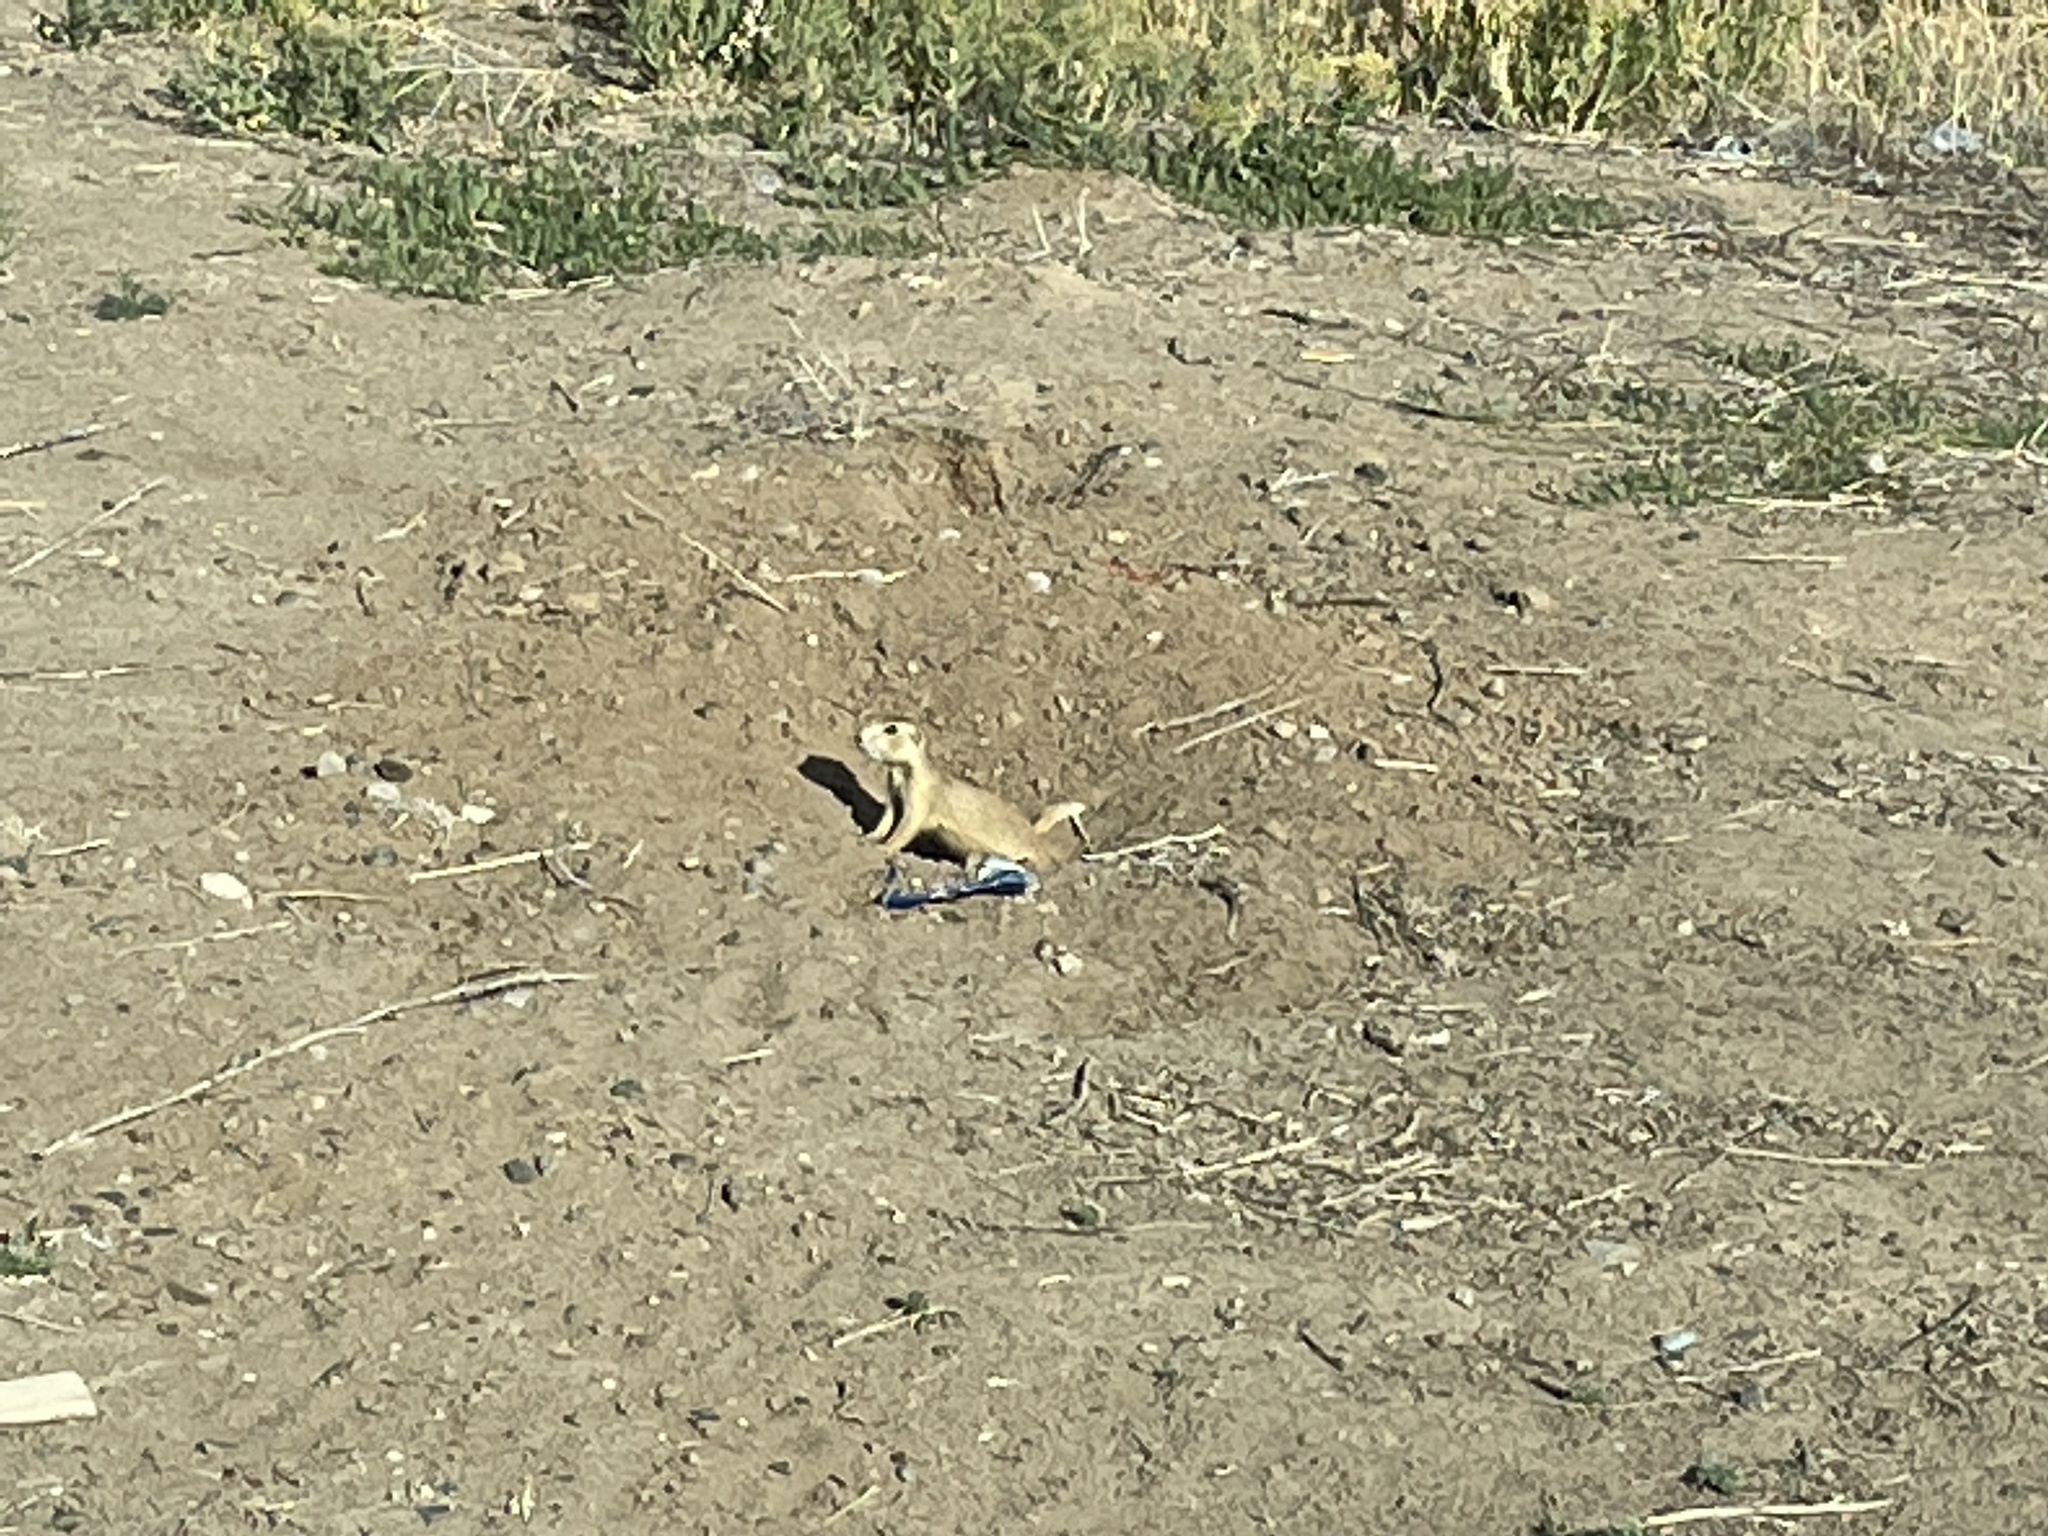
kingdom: Animalia
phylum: Chordata
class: Mammalia
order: Rodentia
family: Sciuridae
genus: Cynomys
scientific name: Cynomys gunnisoni
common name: Gunnison's prairie dog
